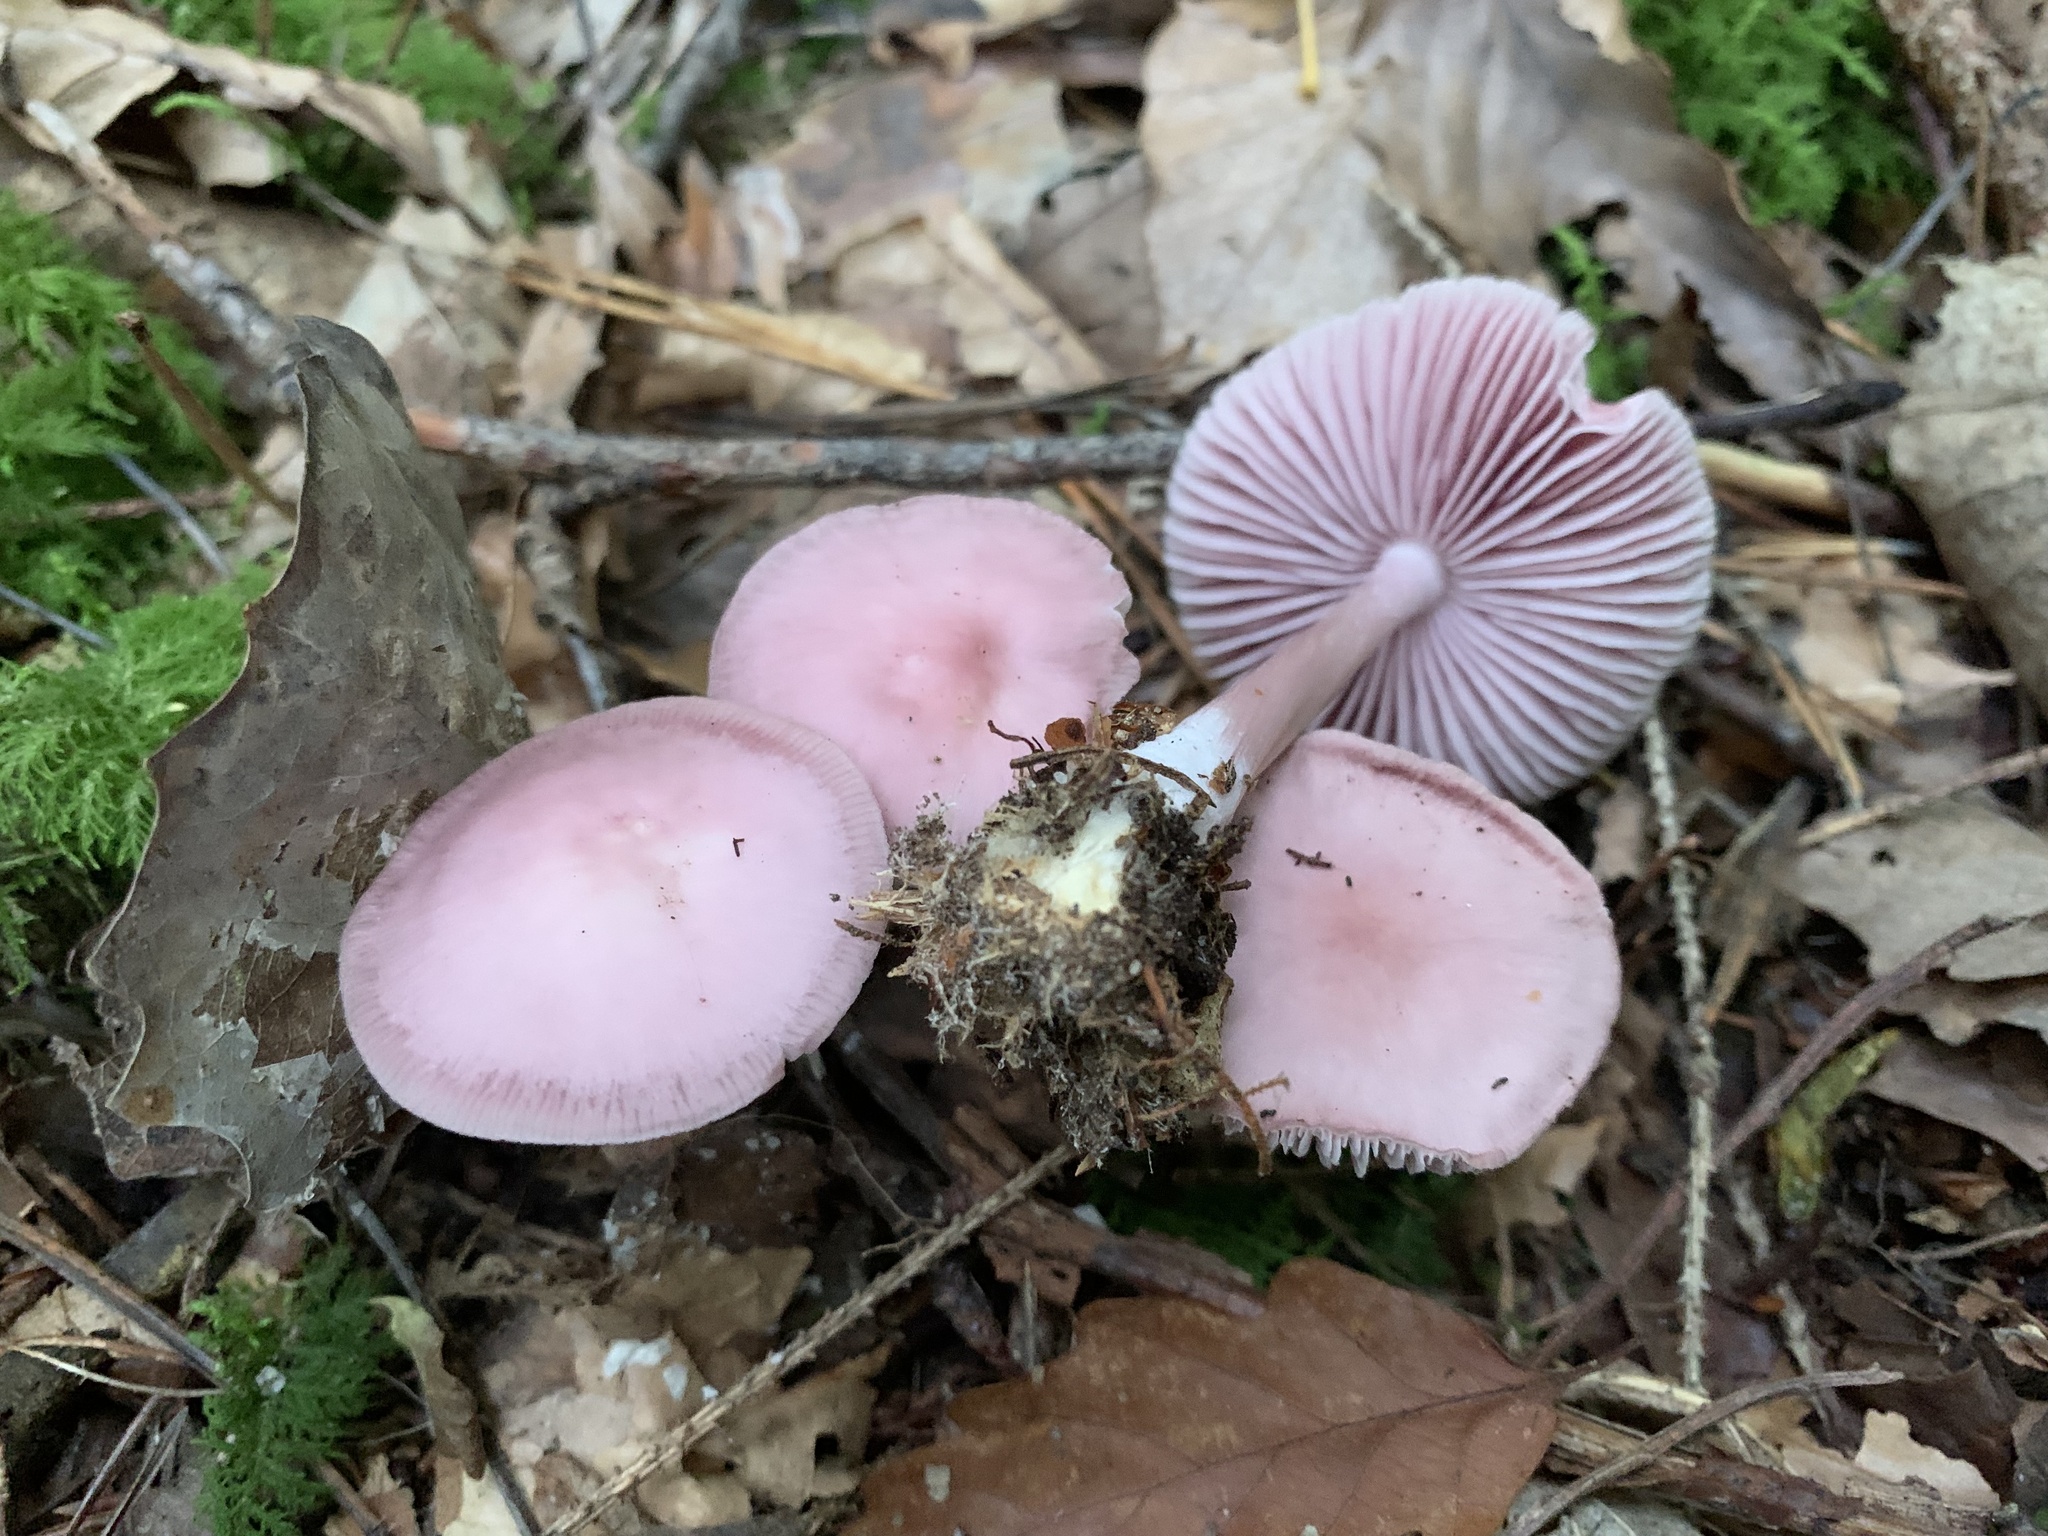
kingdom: Fungi
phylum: Basidiomycota
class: Agaricomycetes
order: Agaricales
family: Mycenaceae
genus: Mycena
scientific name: Mycena rosea
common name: Rosy bonnet
